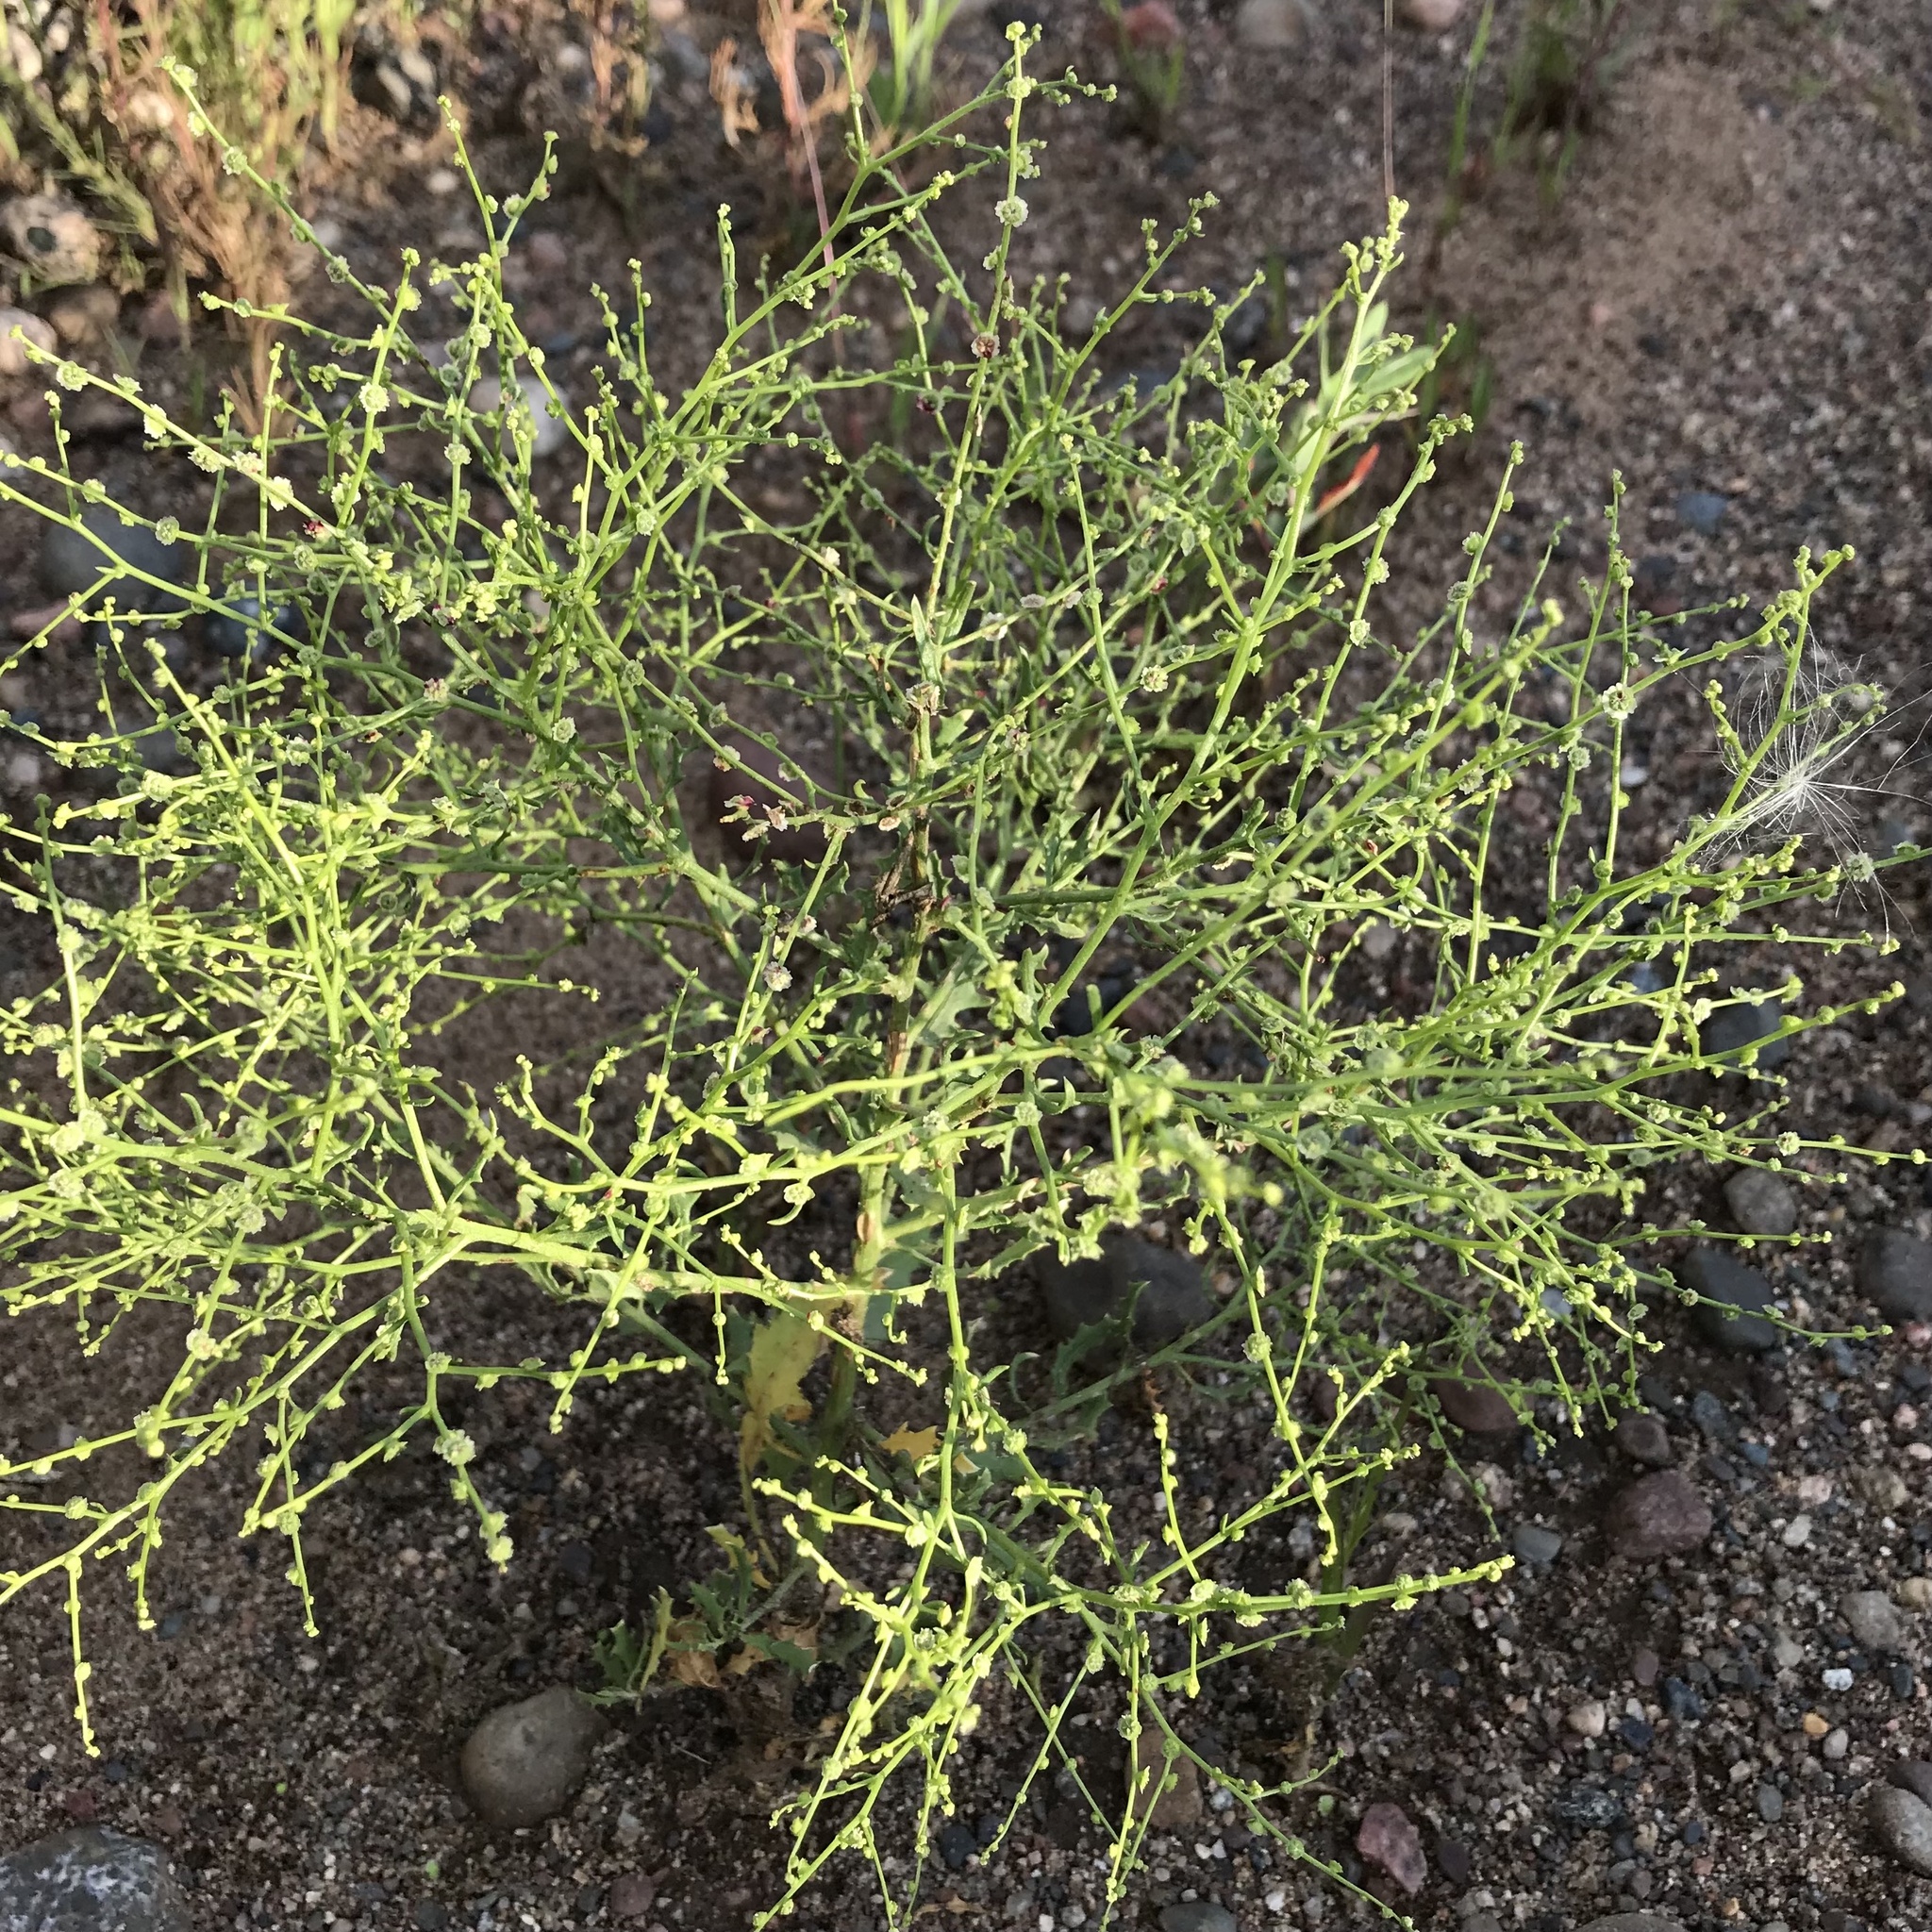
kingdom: Plantae
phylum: Tracheophyta
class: Magnoliopsida
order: Caryophyllales
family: Amaranthaceae
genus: Dysphania
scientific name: Dysphania atriplicifolia
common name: Plains tumbleweed
